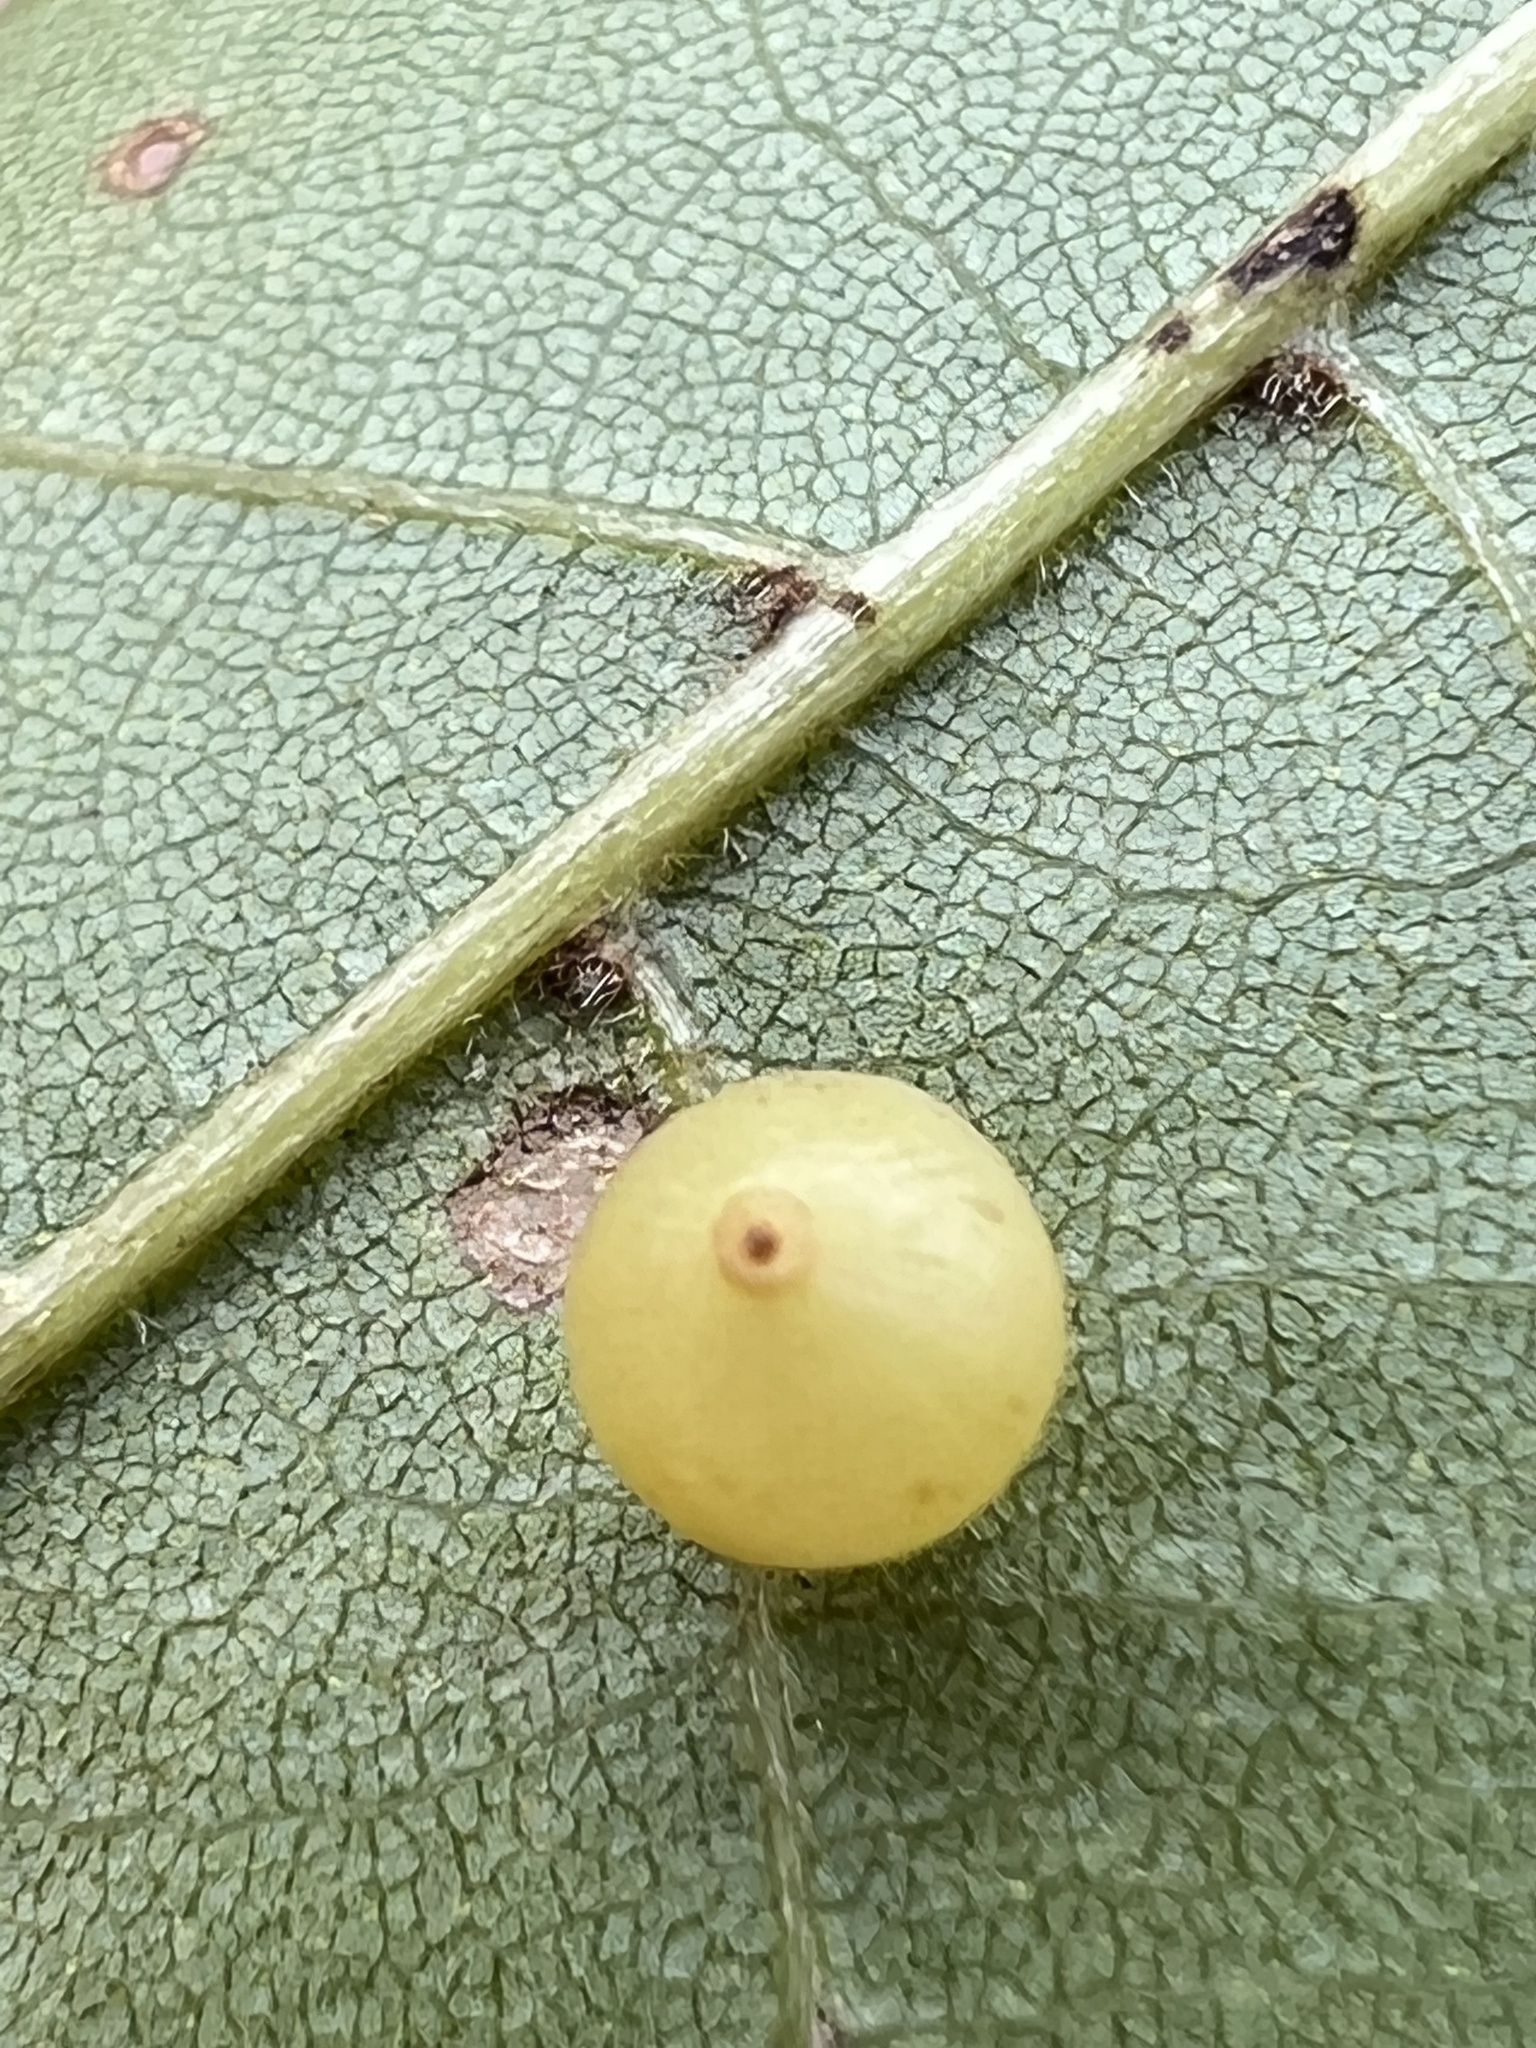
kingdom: Animalia
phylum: Arthropoda
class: Insecta
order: Diptera
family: Cecidomyiidae
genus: Caryomyia
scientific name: Caryomyia leviglobus
